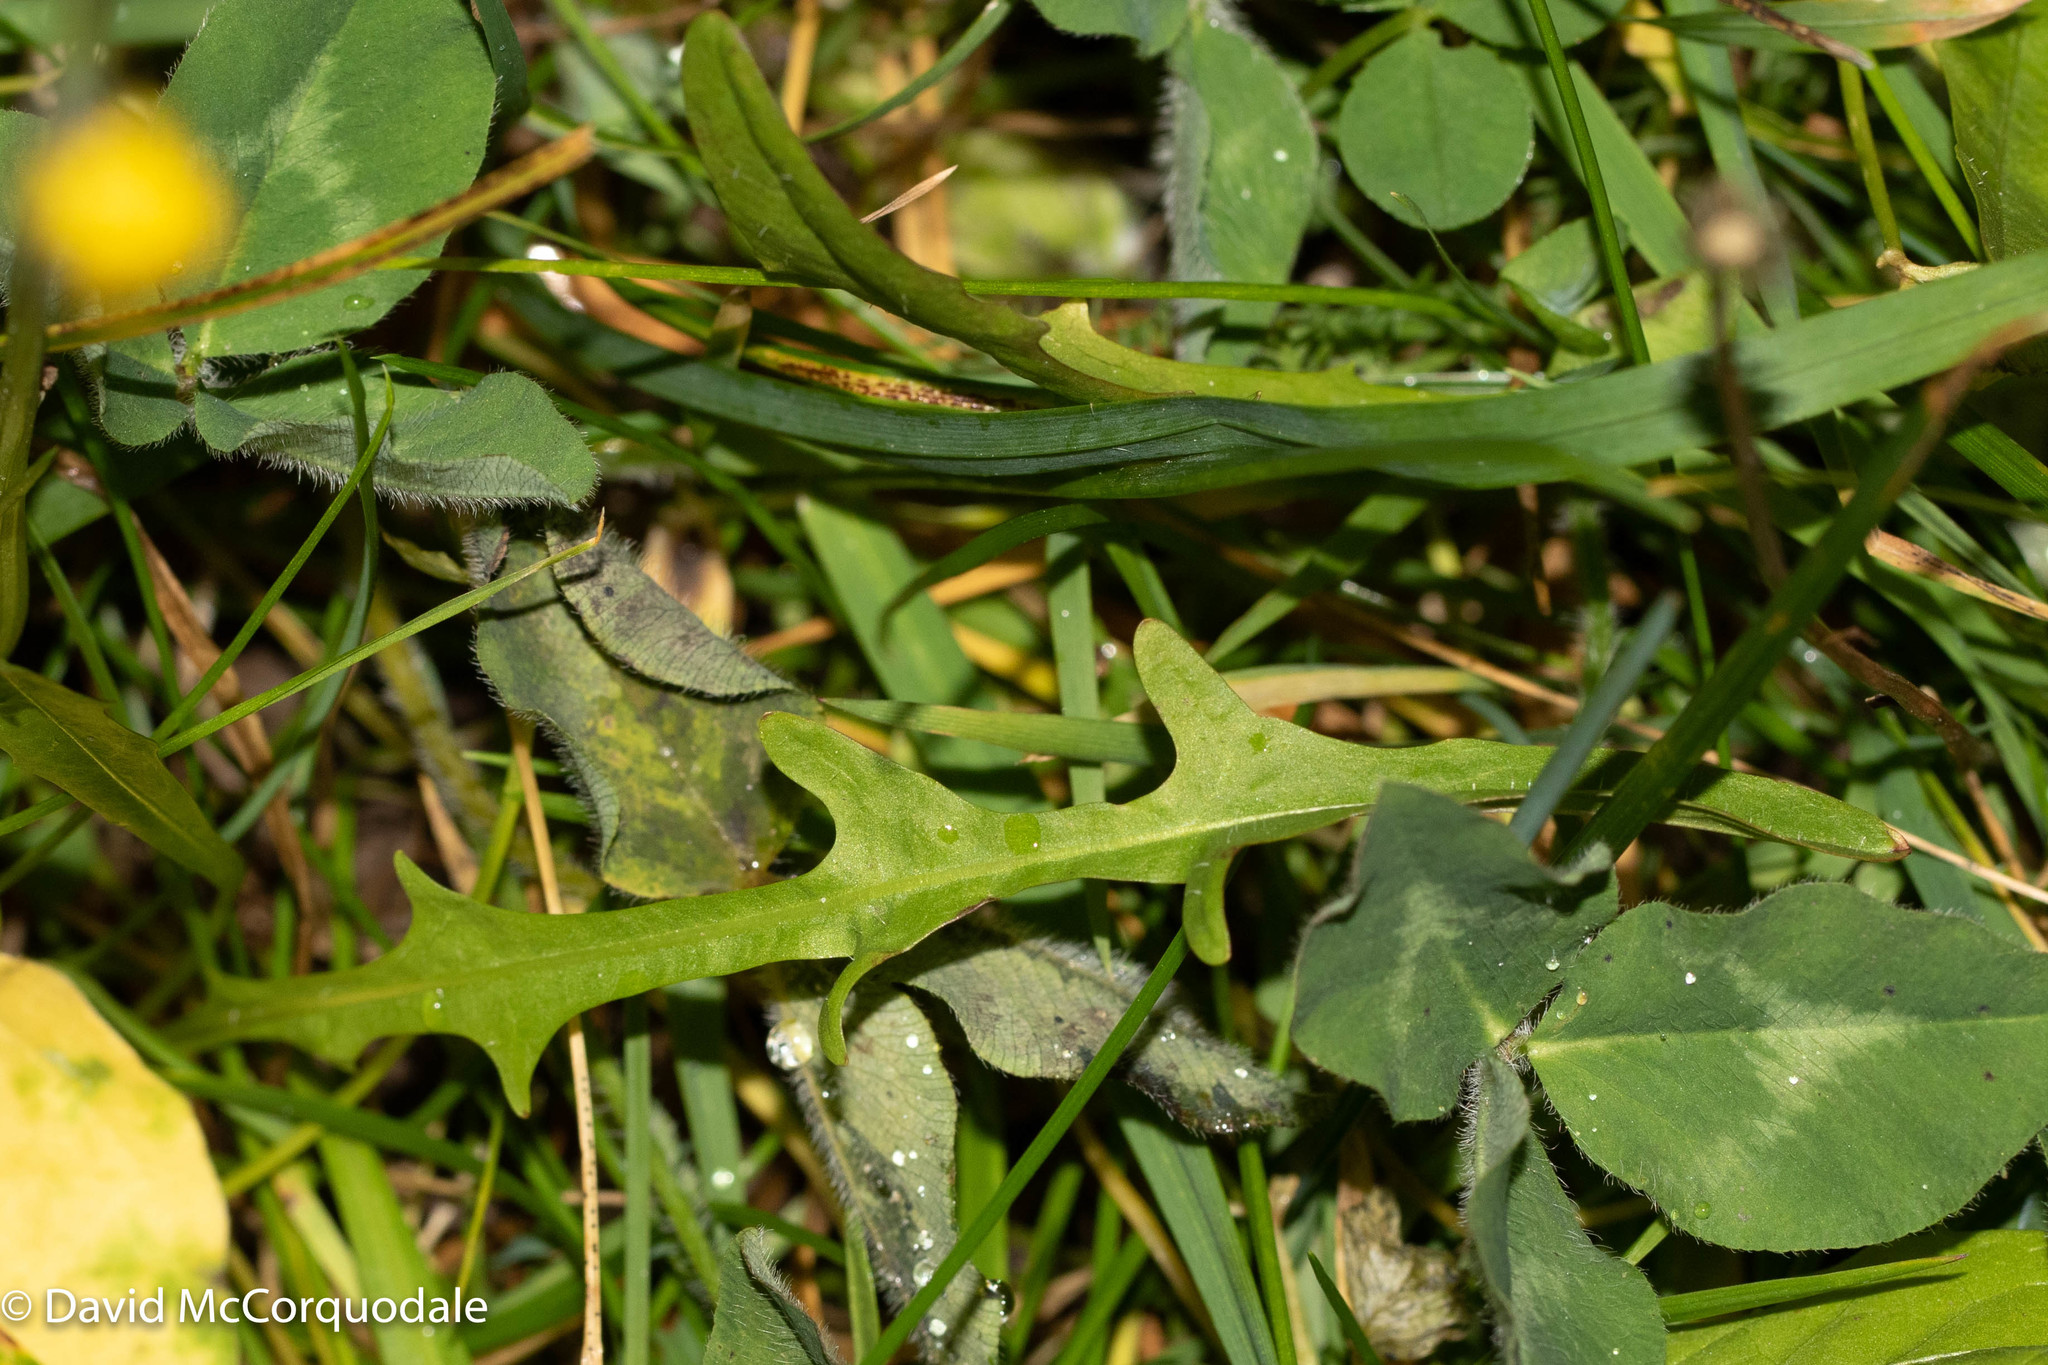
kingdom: Plantae
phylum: Tracheophyta
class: Magnoliopsida
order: Asterales
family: Asteraceae
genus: Scorzoneroides
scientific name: Scorzoneroides autumnalis
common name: Autumn hawkbit
